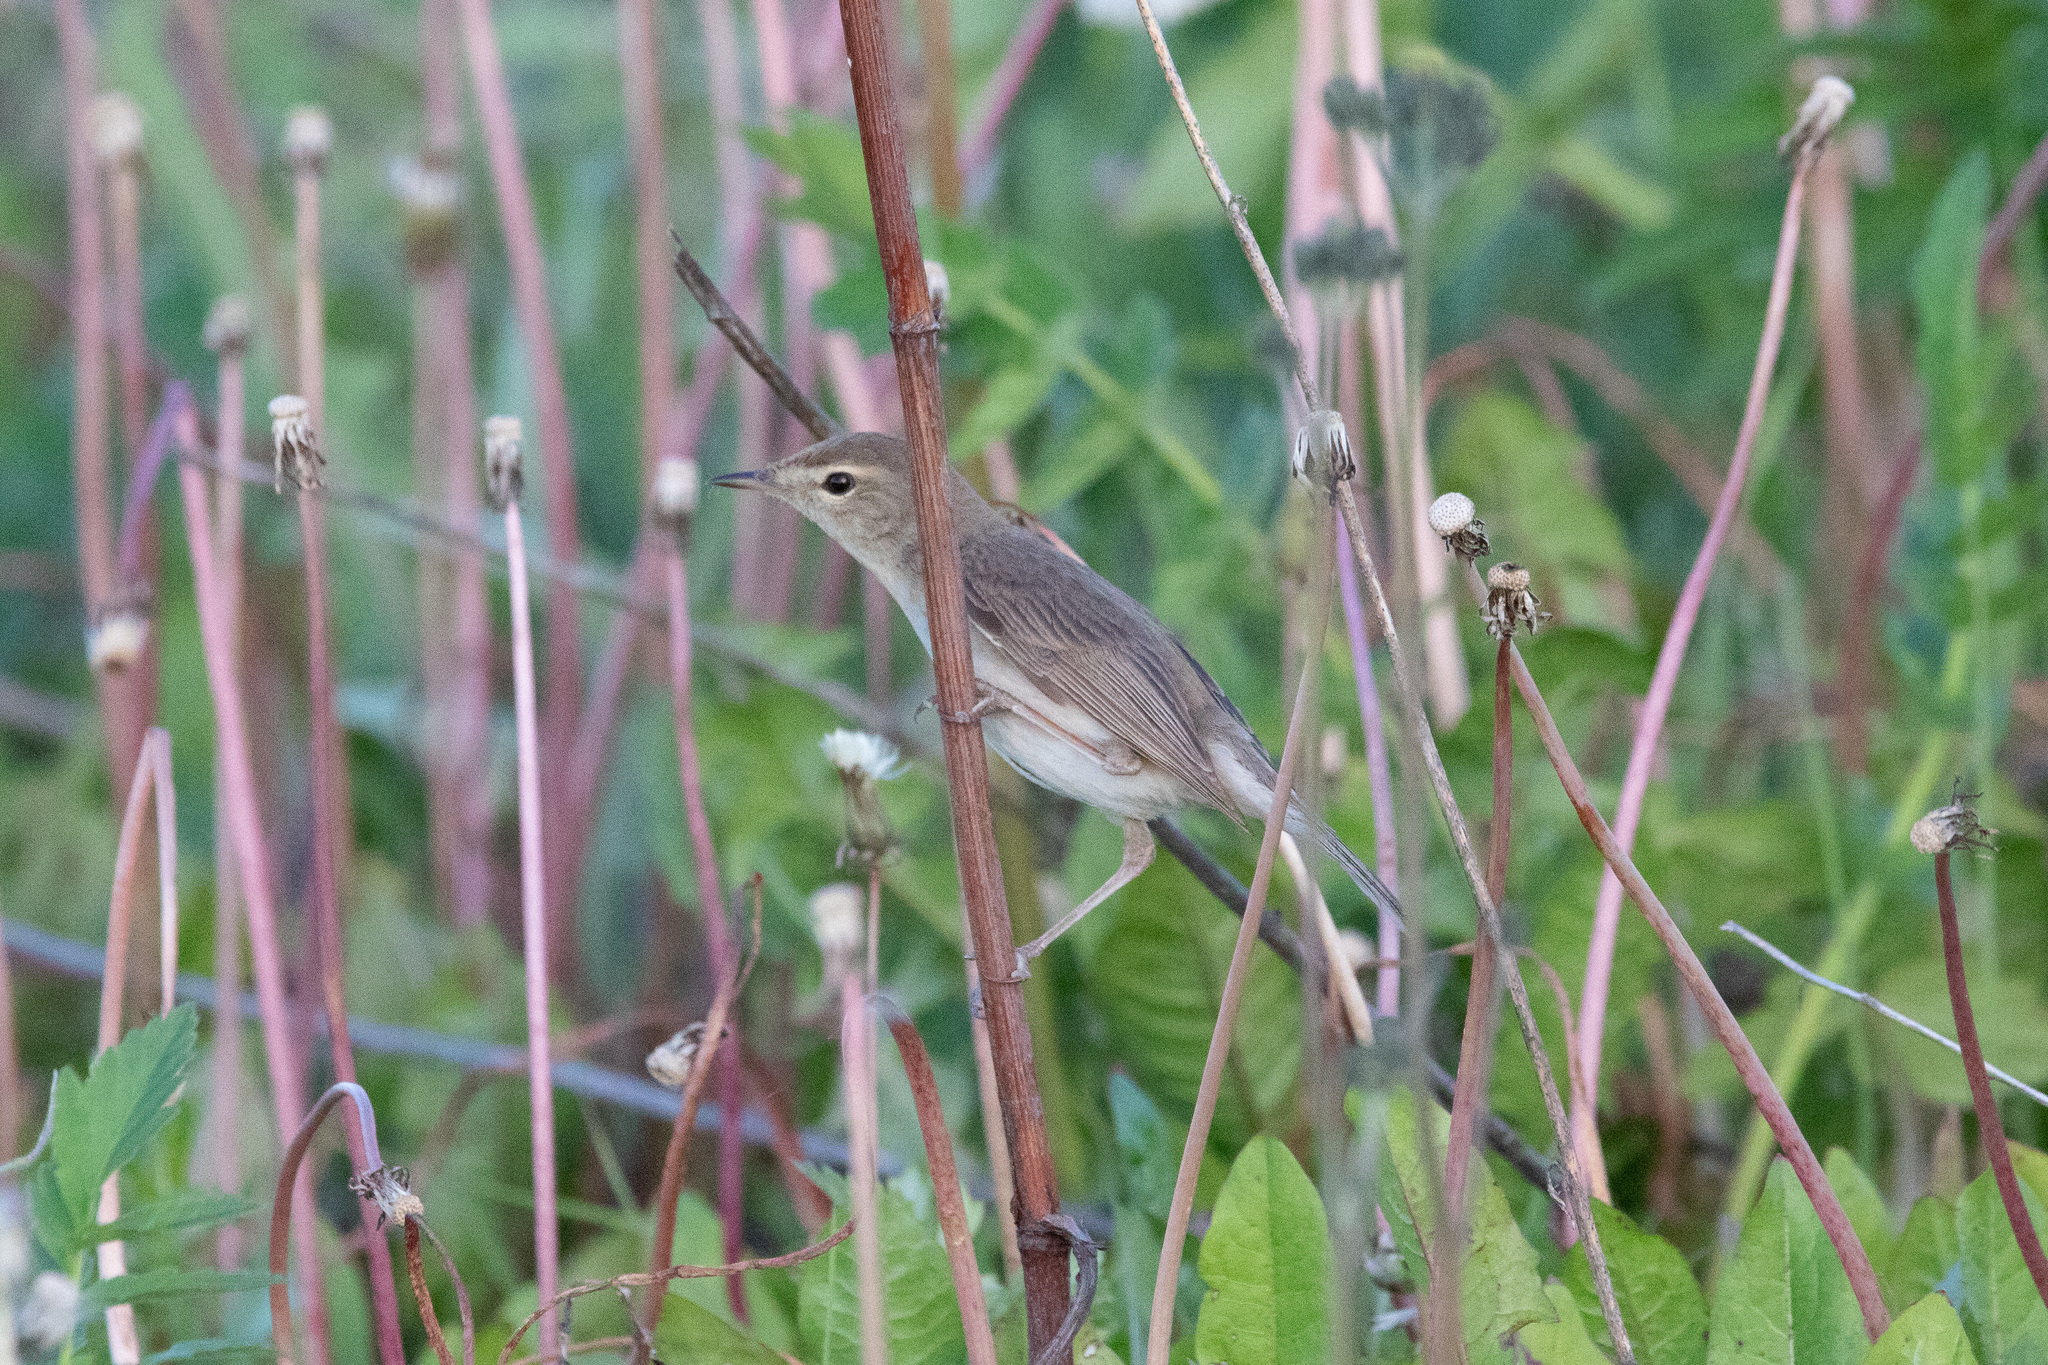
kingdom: Animalia
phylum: Chordata
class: Aves
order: Passeriformes
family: Acrocephalidae
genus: Iduna
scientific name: Iduna caligata
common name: Booted warbler
